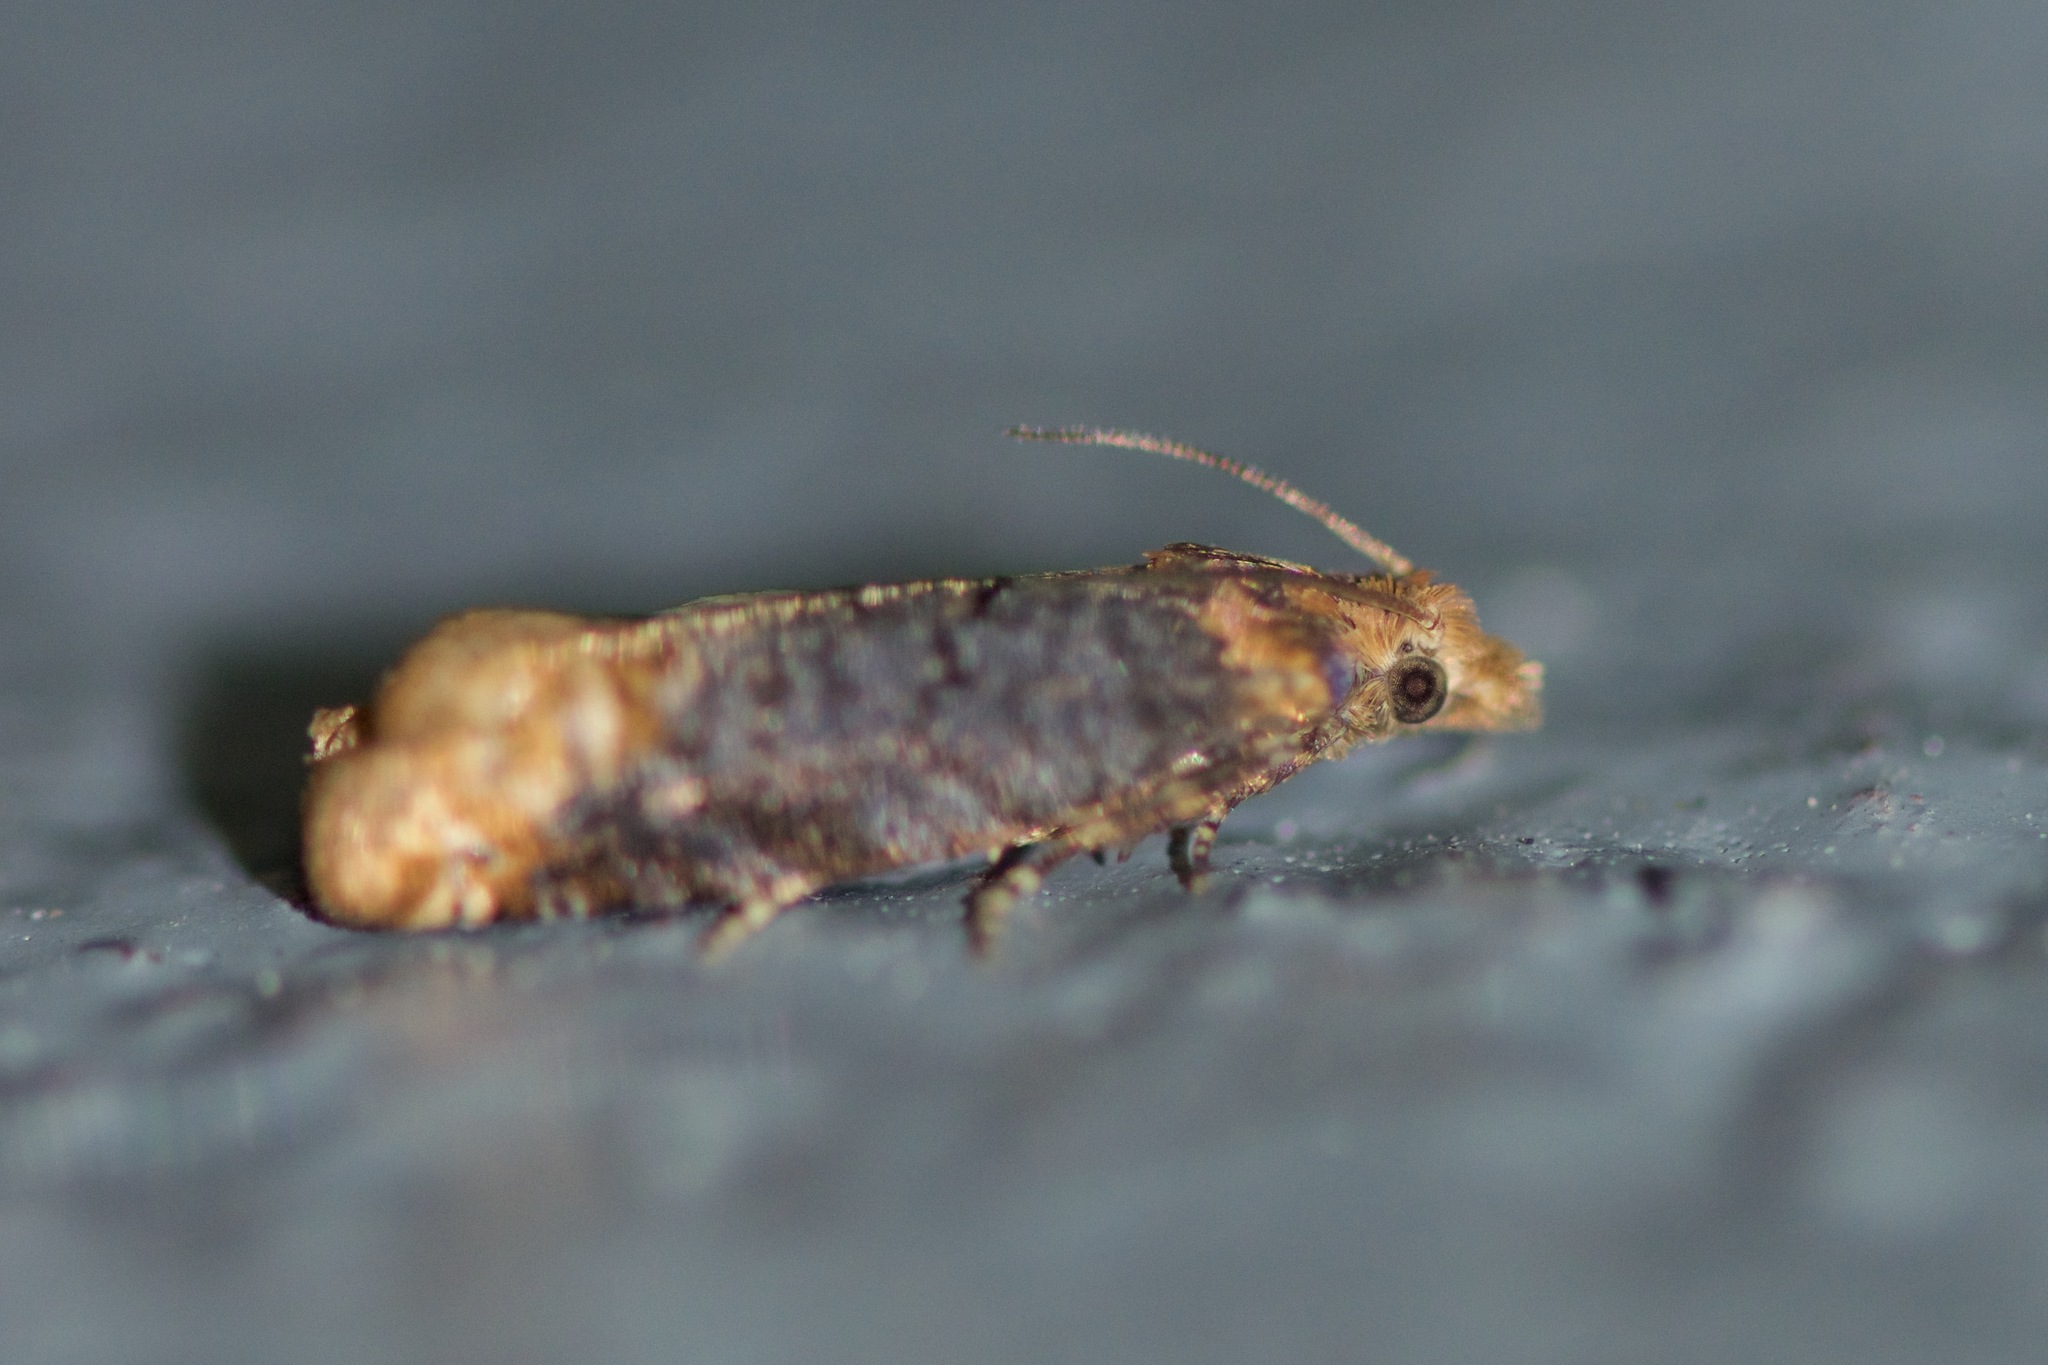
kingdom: Animalia
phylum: Arthropoda
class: Insecta
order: Lepidoptera
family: Tortricidae
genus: Eucosma
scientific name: Eucosma ochroterminana
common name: Buff-tipped eucosma moth
